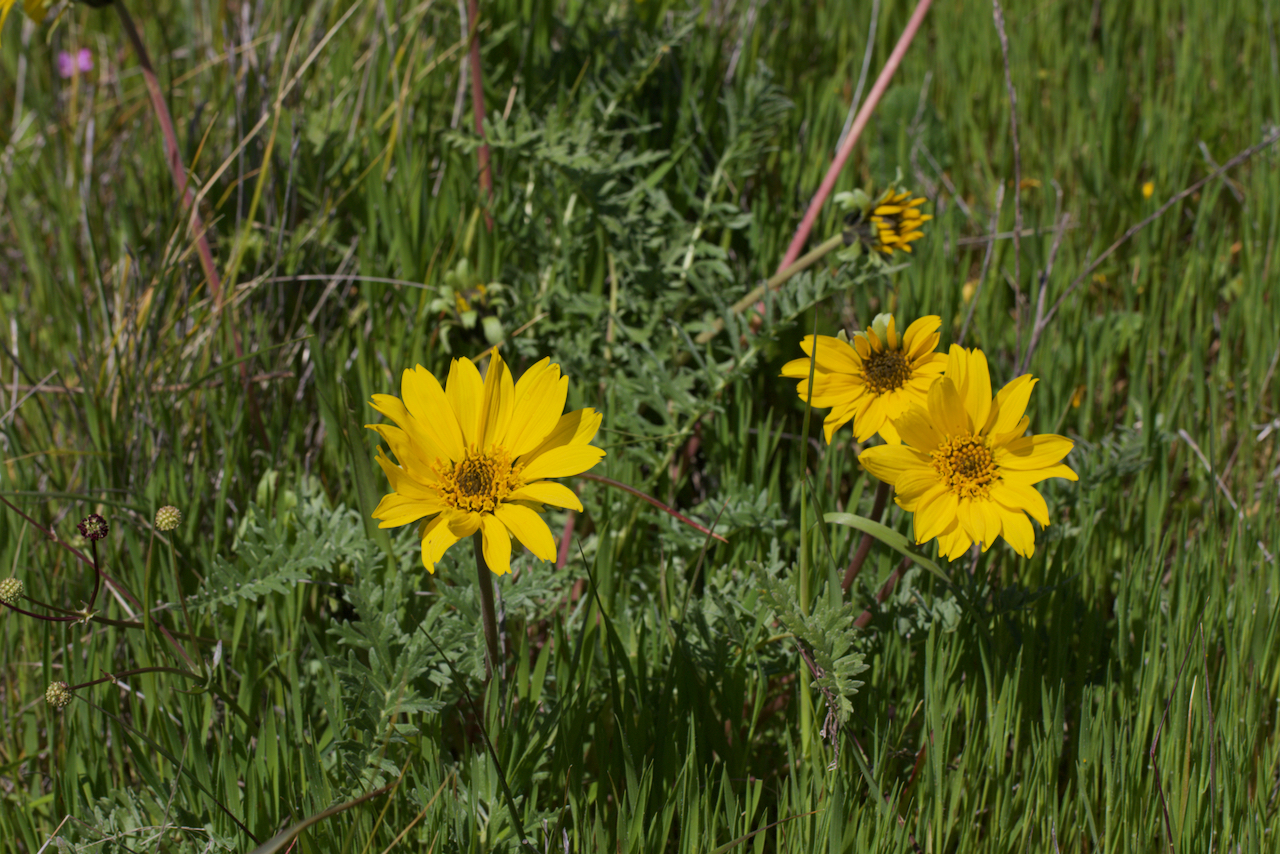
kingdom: Plantae
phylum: Tracheophyta
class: Magnoliopsida
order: Asterales
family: Asteraceae
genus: Balsamorhiza
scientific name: Balsamorhiza macrolepis
